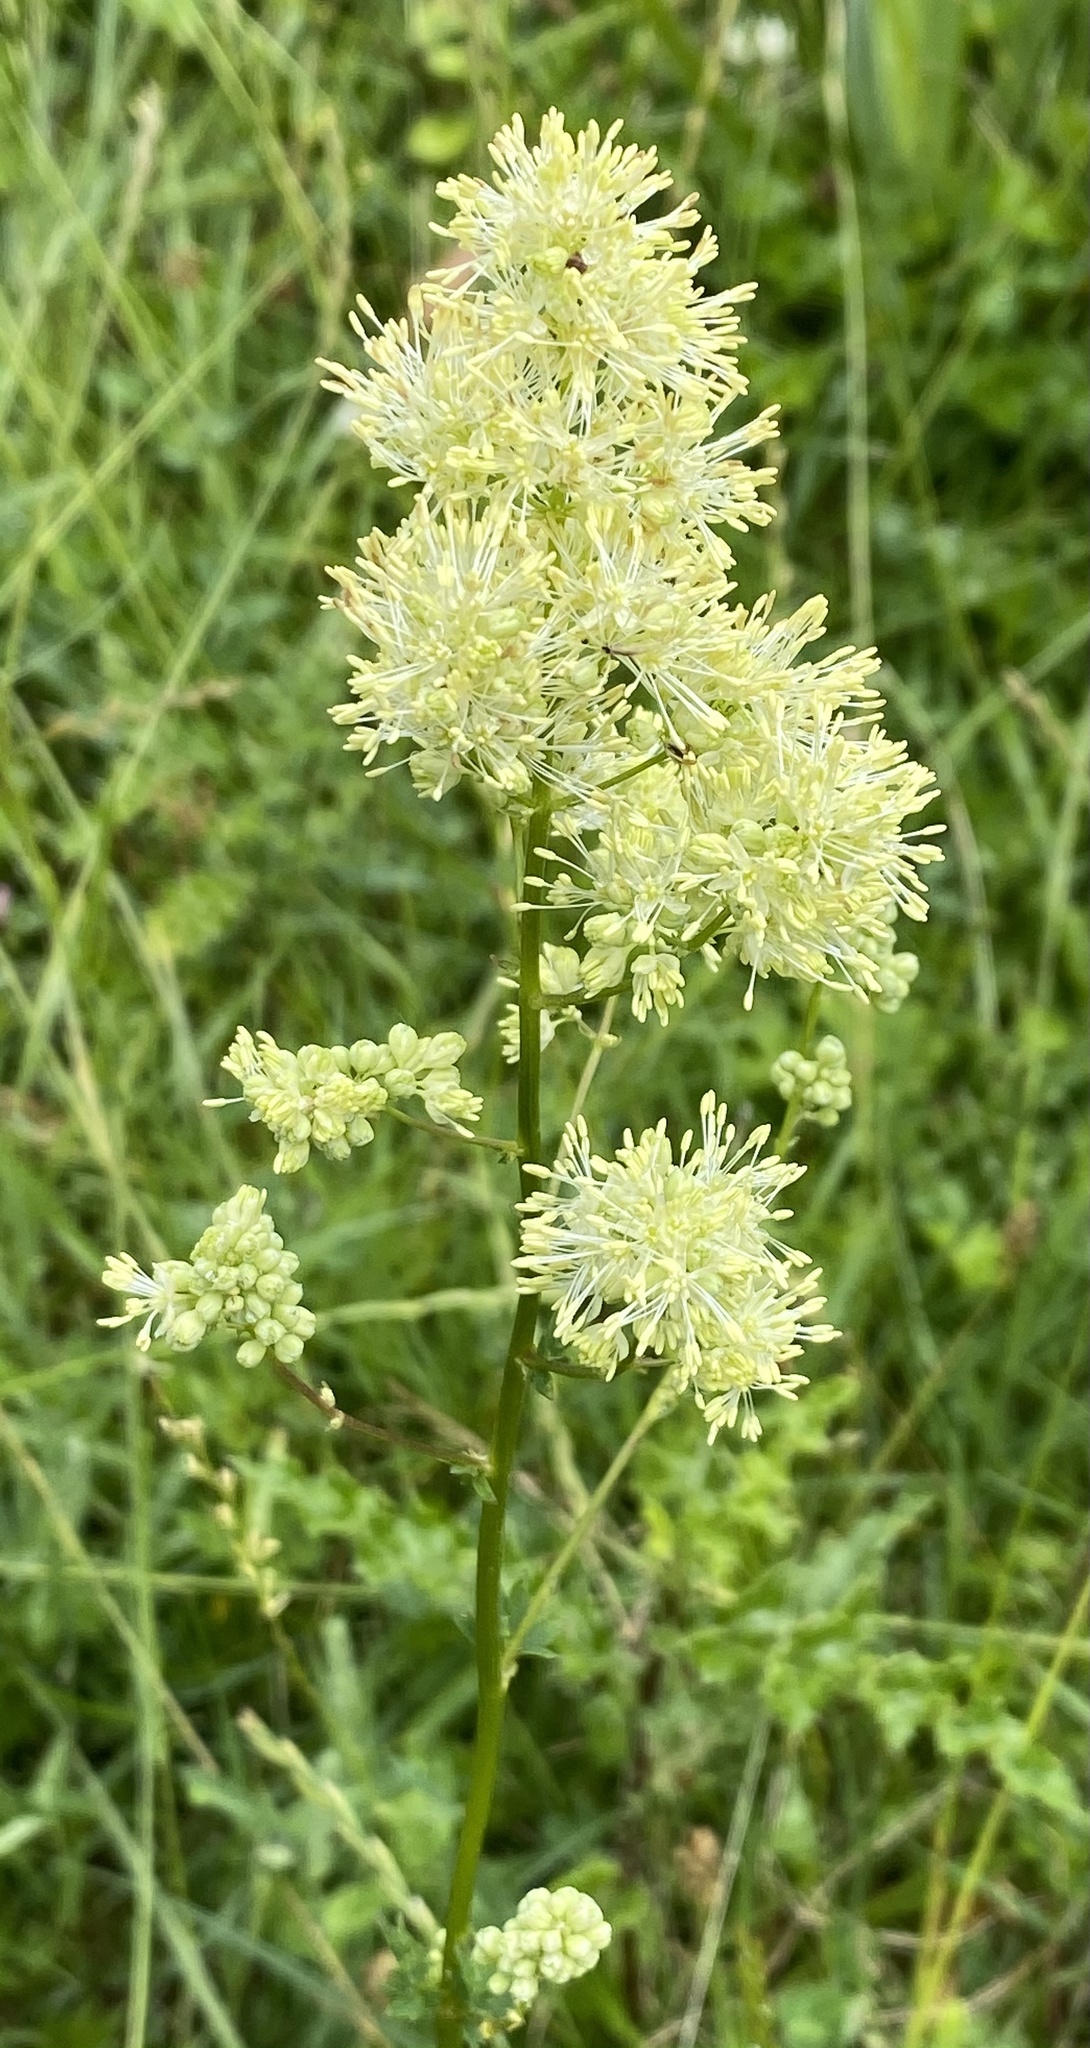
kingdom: Plantae
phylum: Tracheophyta
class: Magnoliopsida
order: Ranunculales
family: Ranunculaceae
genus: Thalictrum
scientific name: Thalictrum flavum
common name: Common meadow-rue
